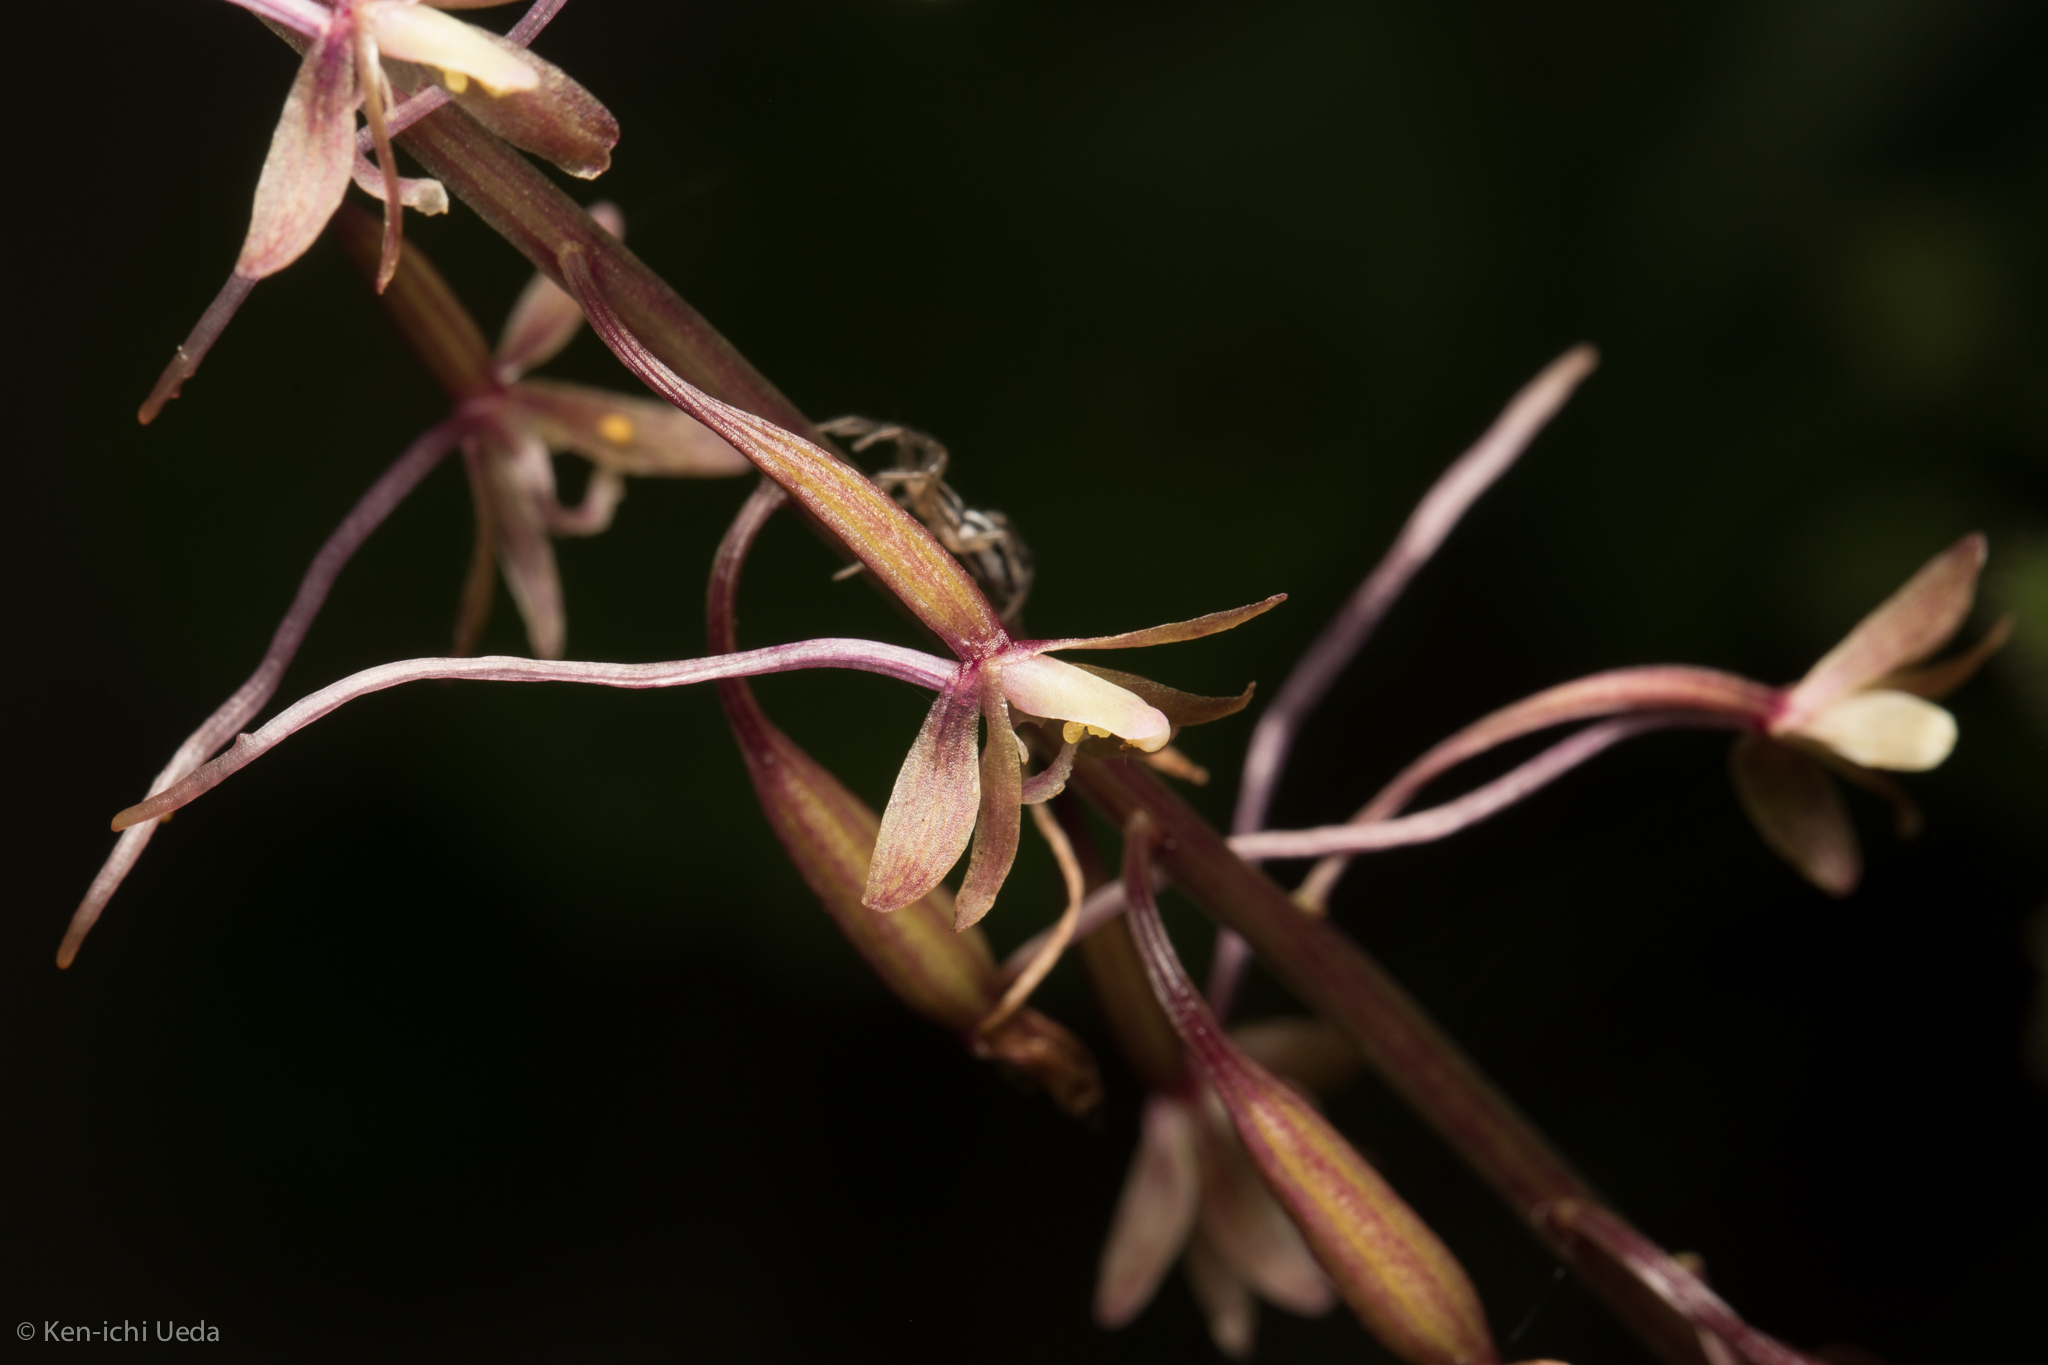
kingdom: Plantae
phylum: Tracheophyta
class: Liliopsida
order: Asparagales
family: Orchidaceae
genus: Tipularia
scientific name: Tipularia discolor
